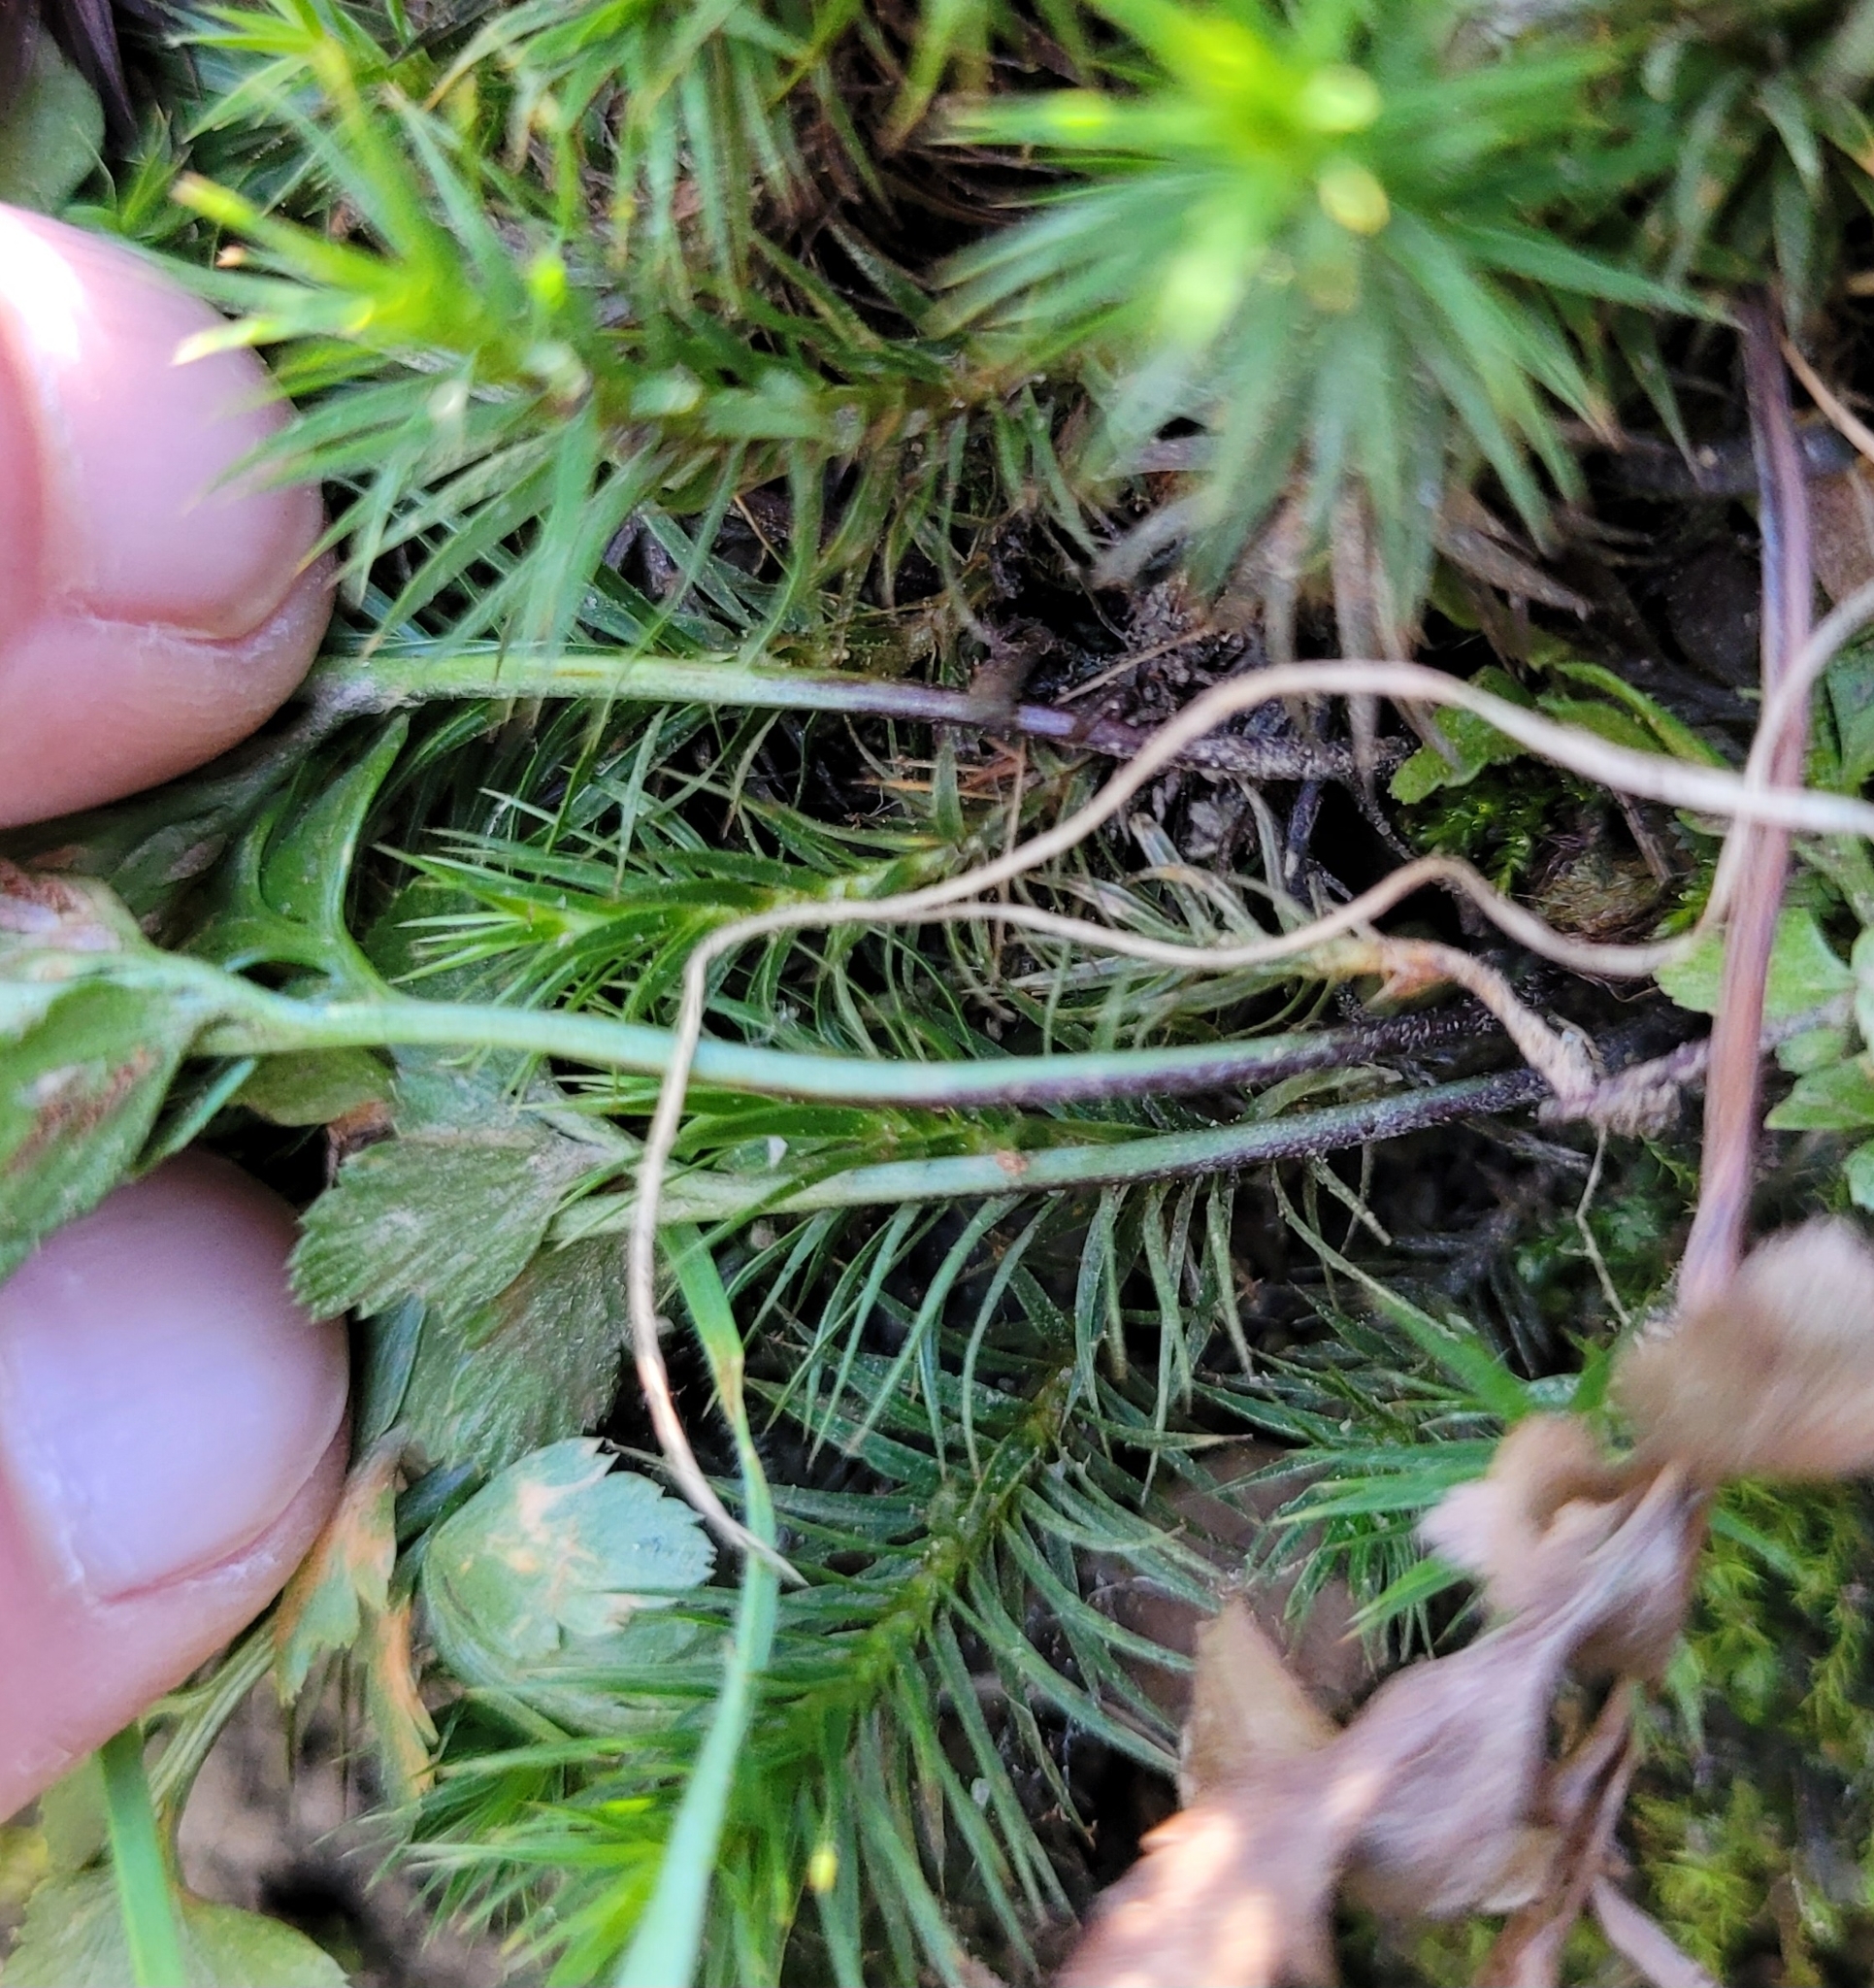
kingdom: Plantae
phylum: Tracheophyta
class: Polypodiopsida
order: Polypodiales
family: Aspleniaceae
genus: Asplenium
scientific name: Asplenium adiantum-nigrum
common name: Black spleenwort
